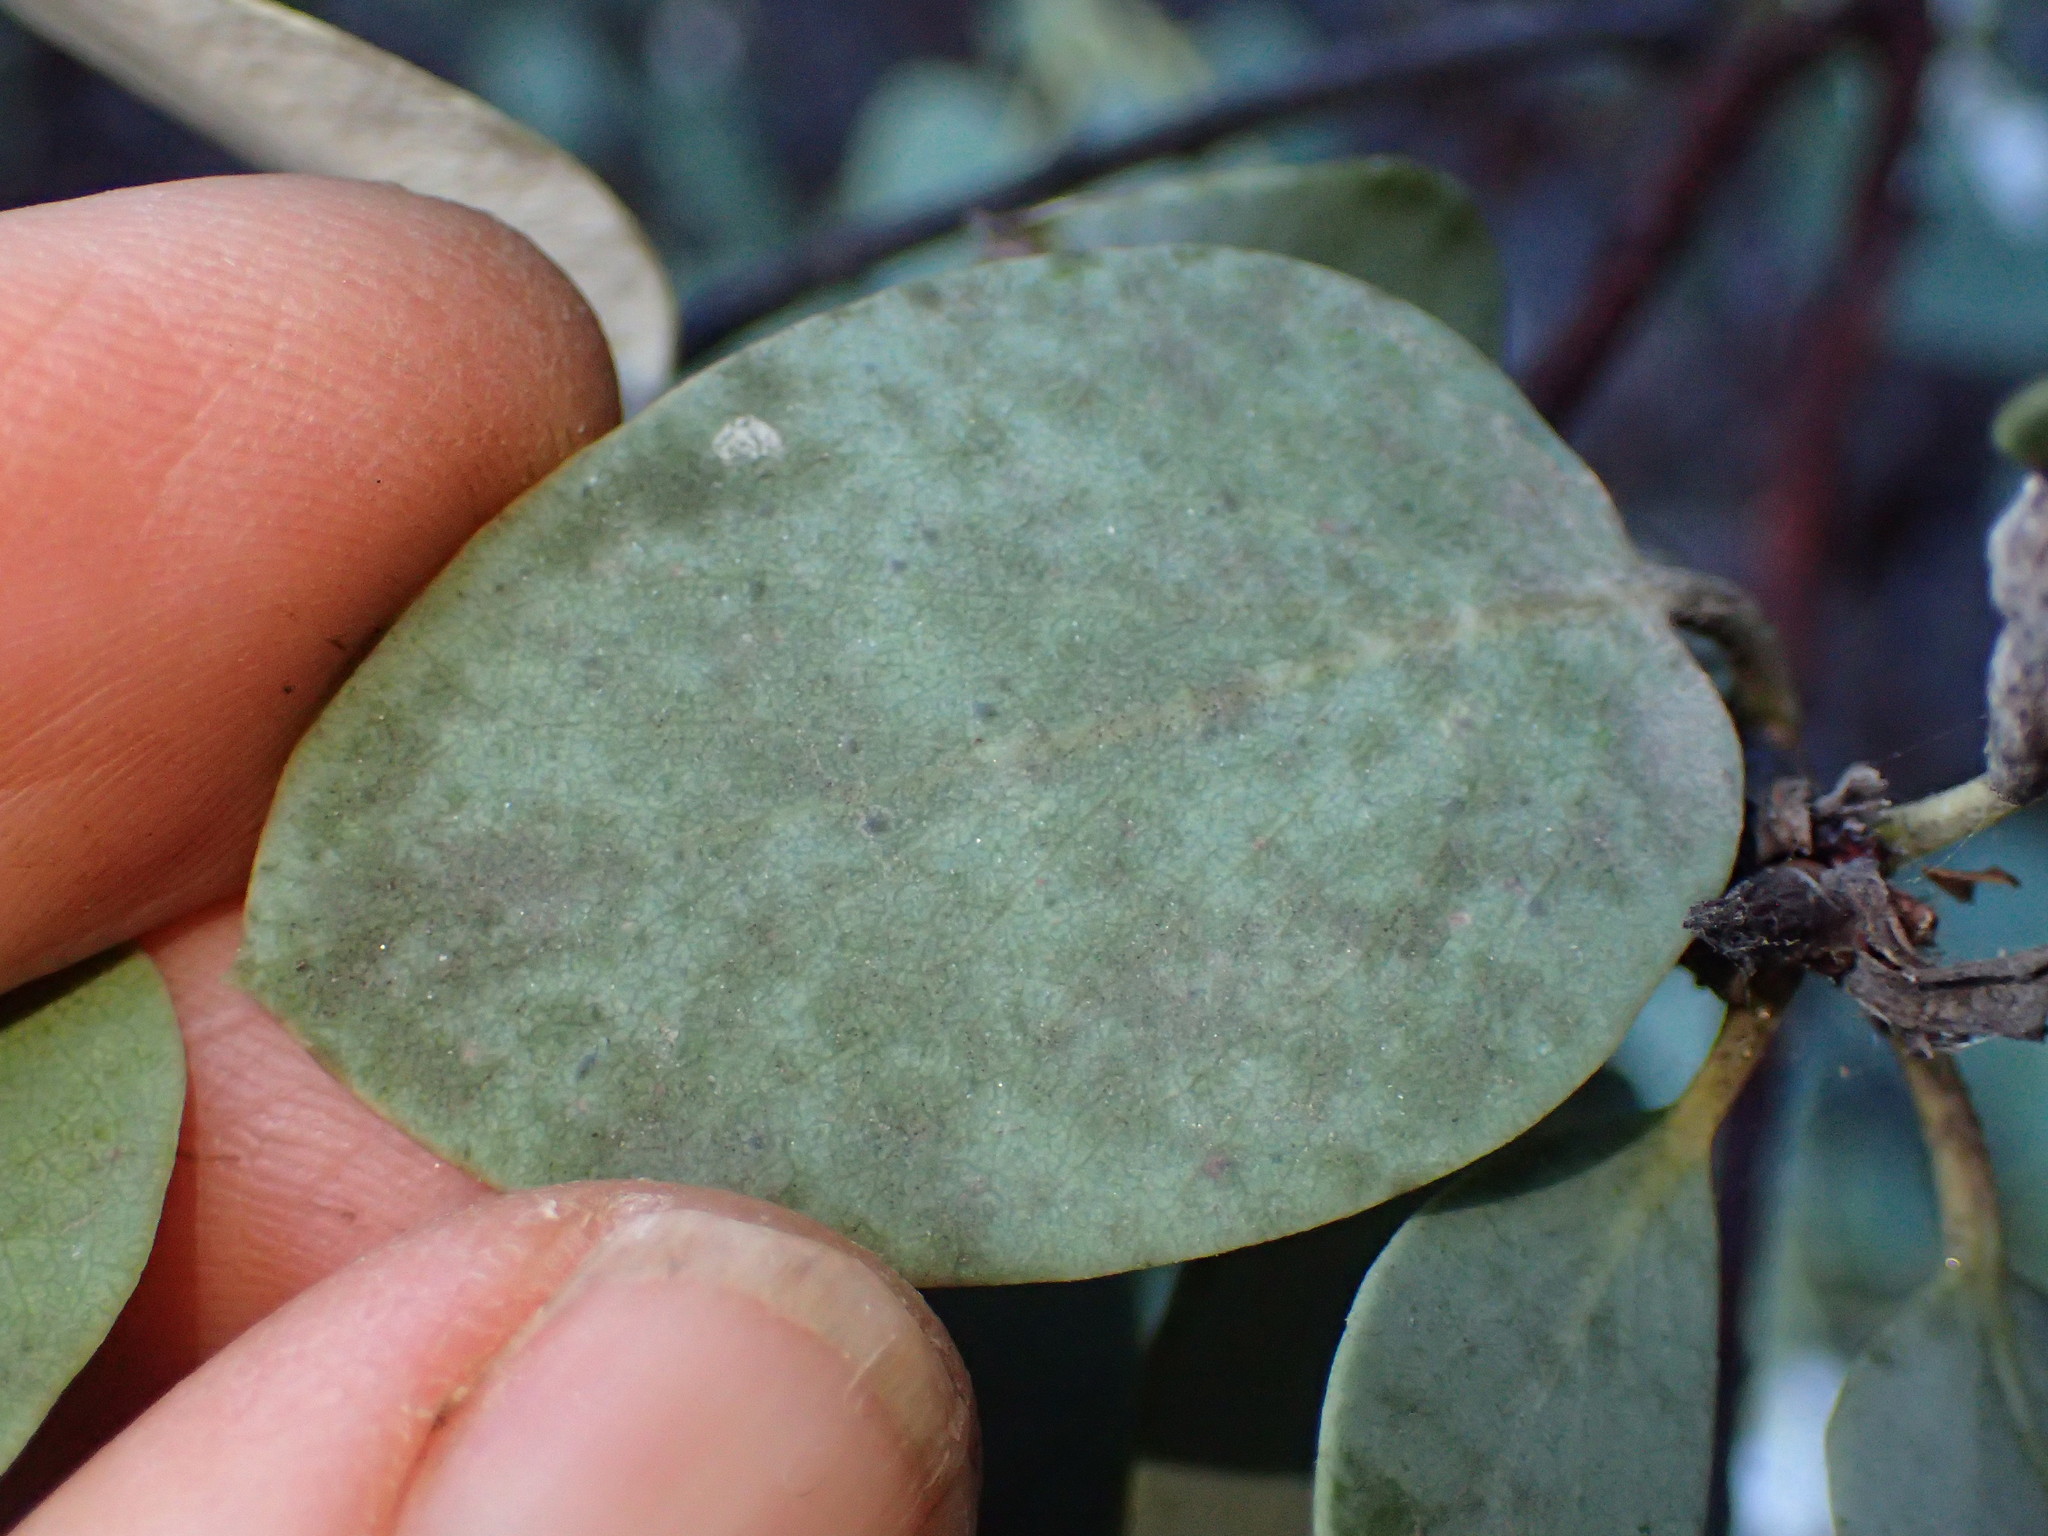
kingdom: Plantae
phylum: Tracheophyta
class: Magnoliopsida
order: Ericales
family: Ericaceae
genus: Arctostaphylos
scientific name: Arctostaphylos glauca
